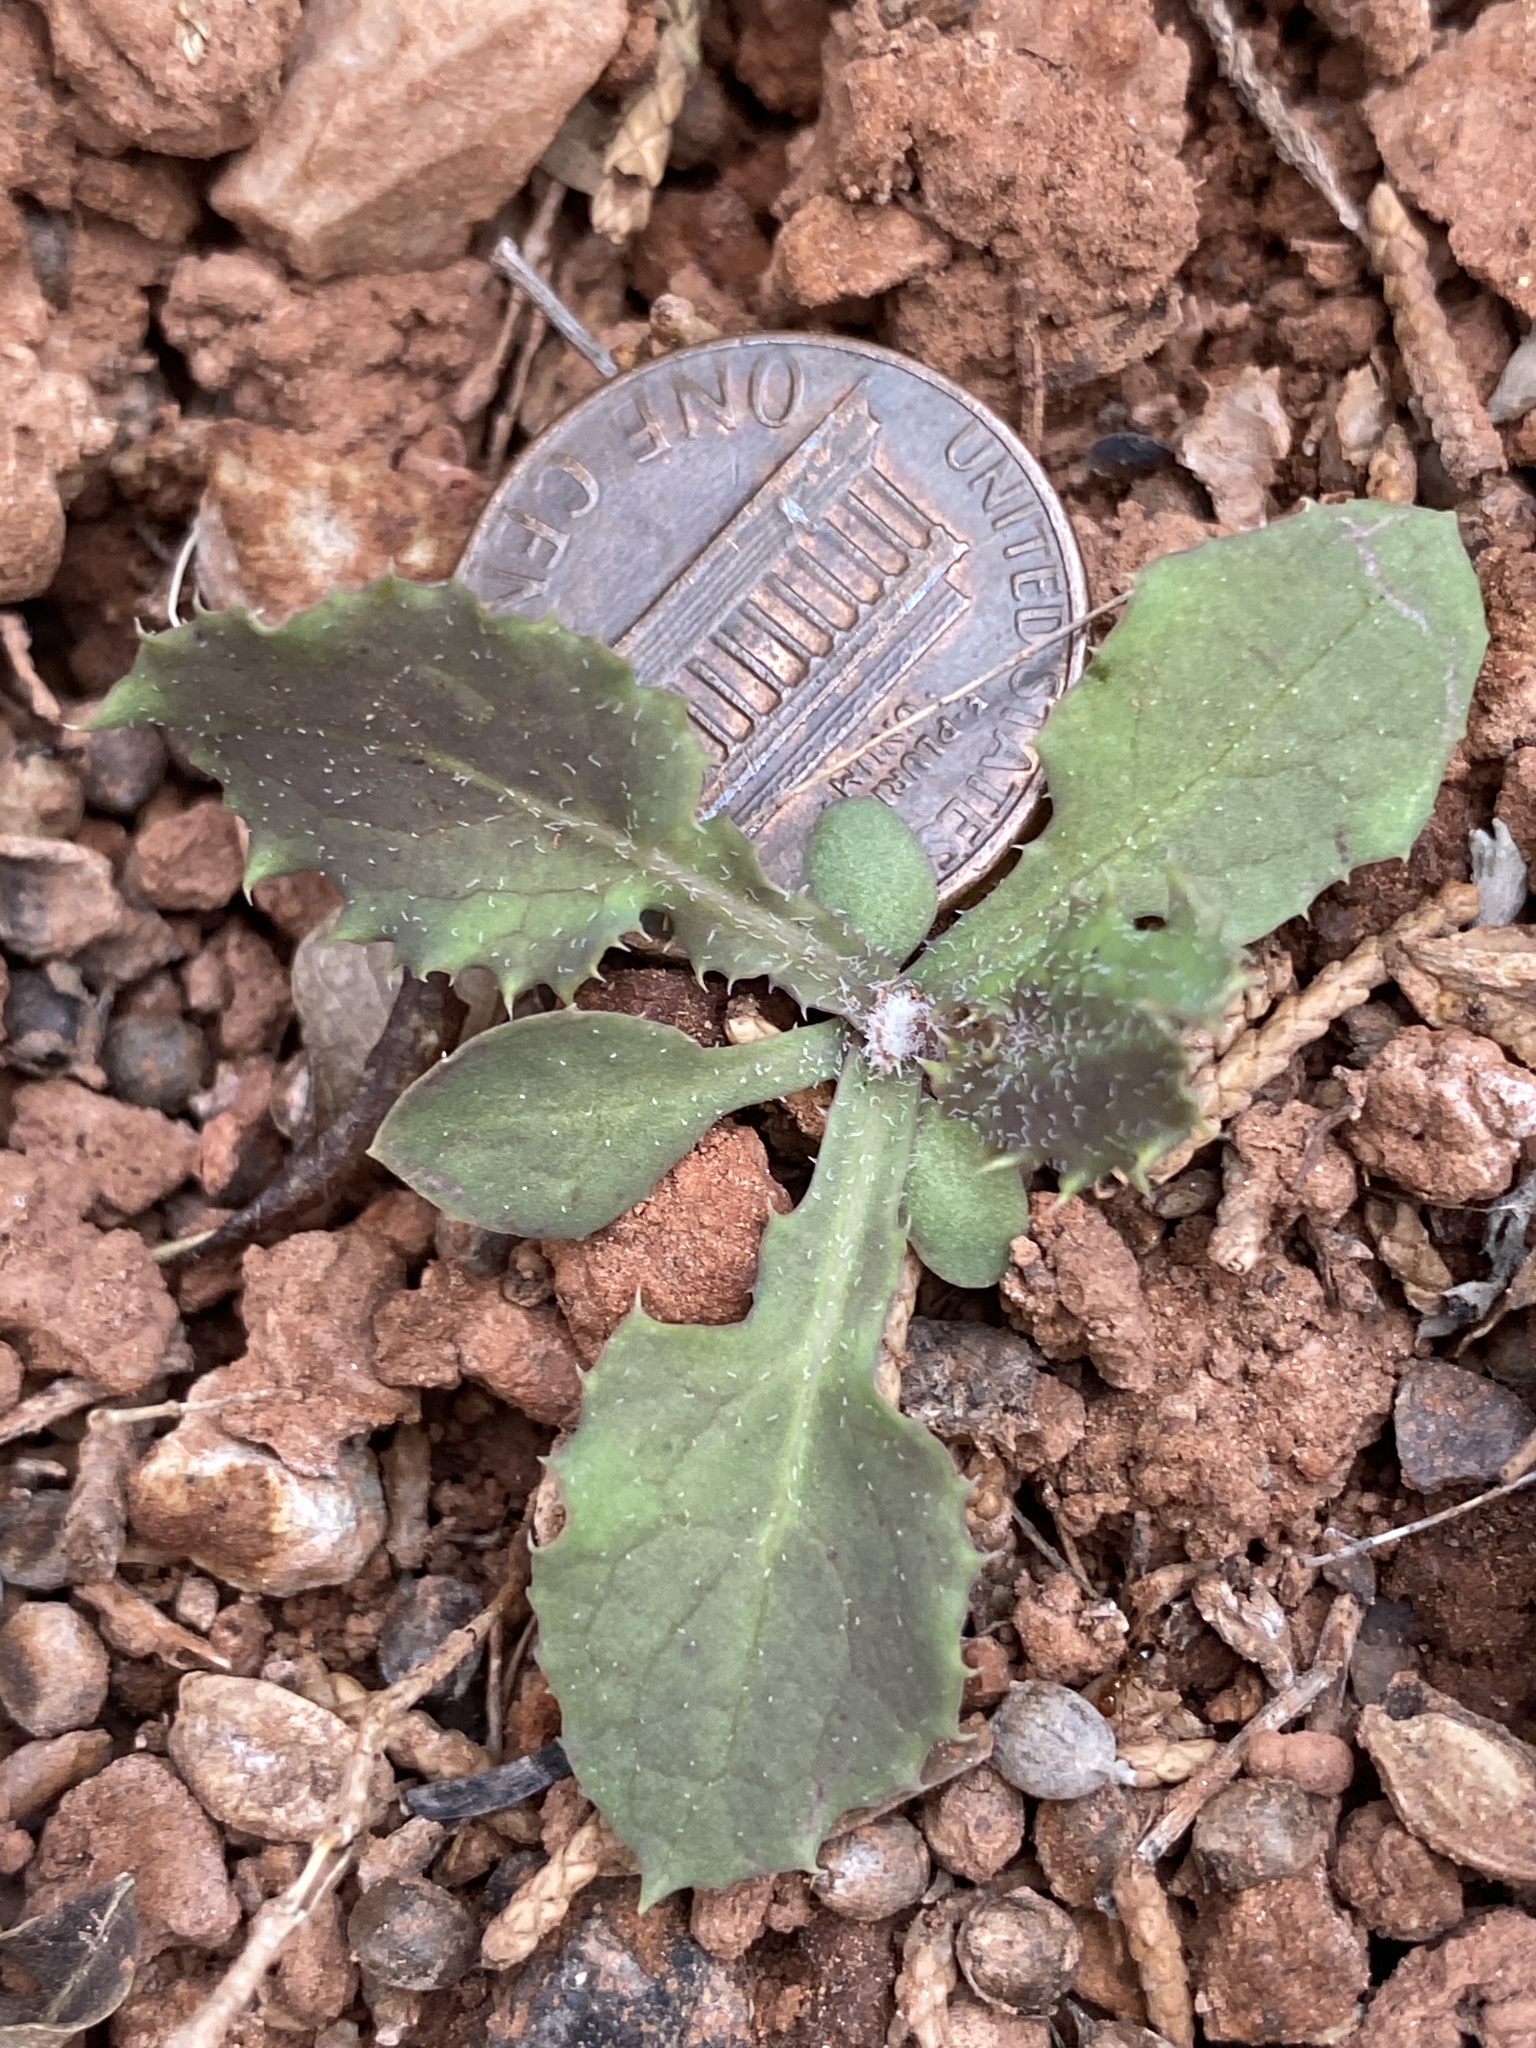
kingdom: Plantae
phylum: Tracheophyta
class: Magnoliopsida
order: Asterales
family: Asteraceae
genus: Sonchus
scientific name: Sonchus oleraceus
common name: Common sowthistle
